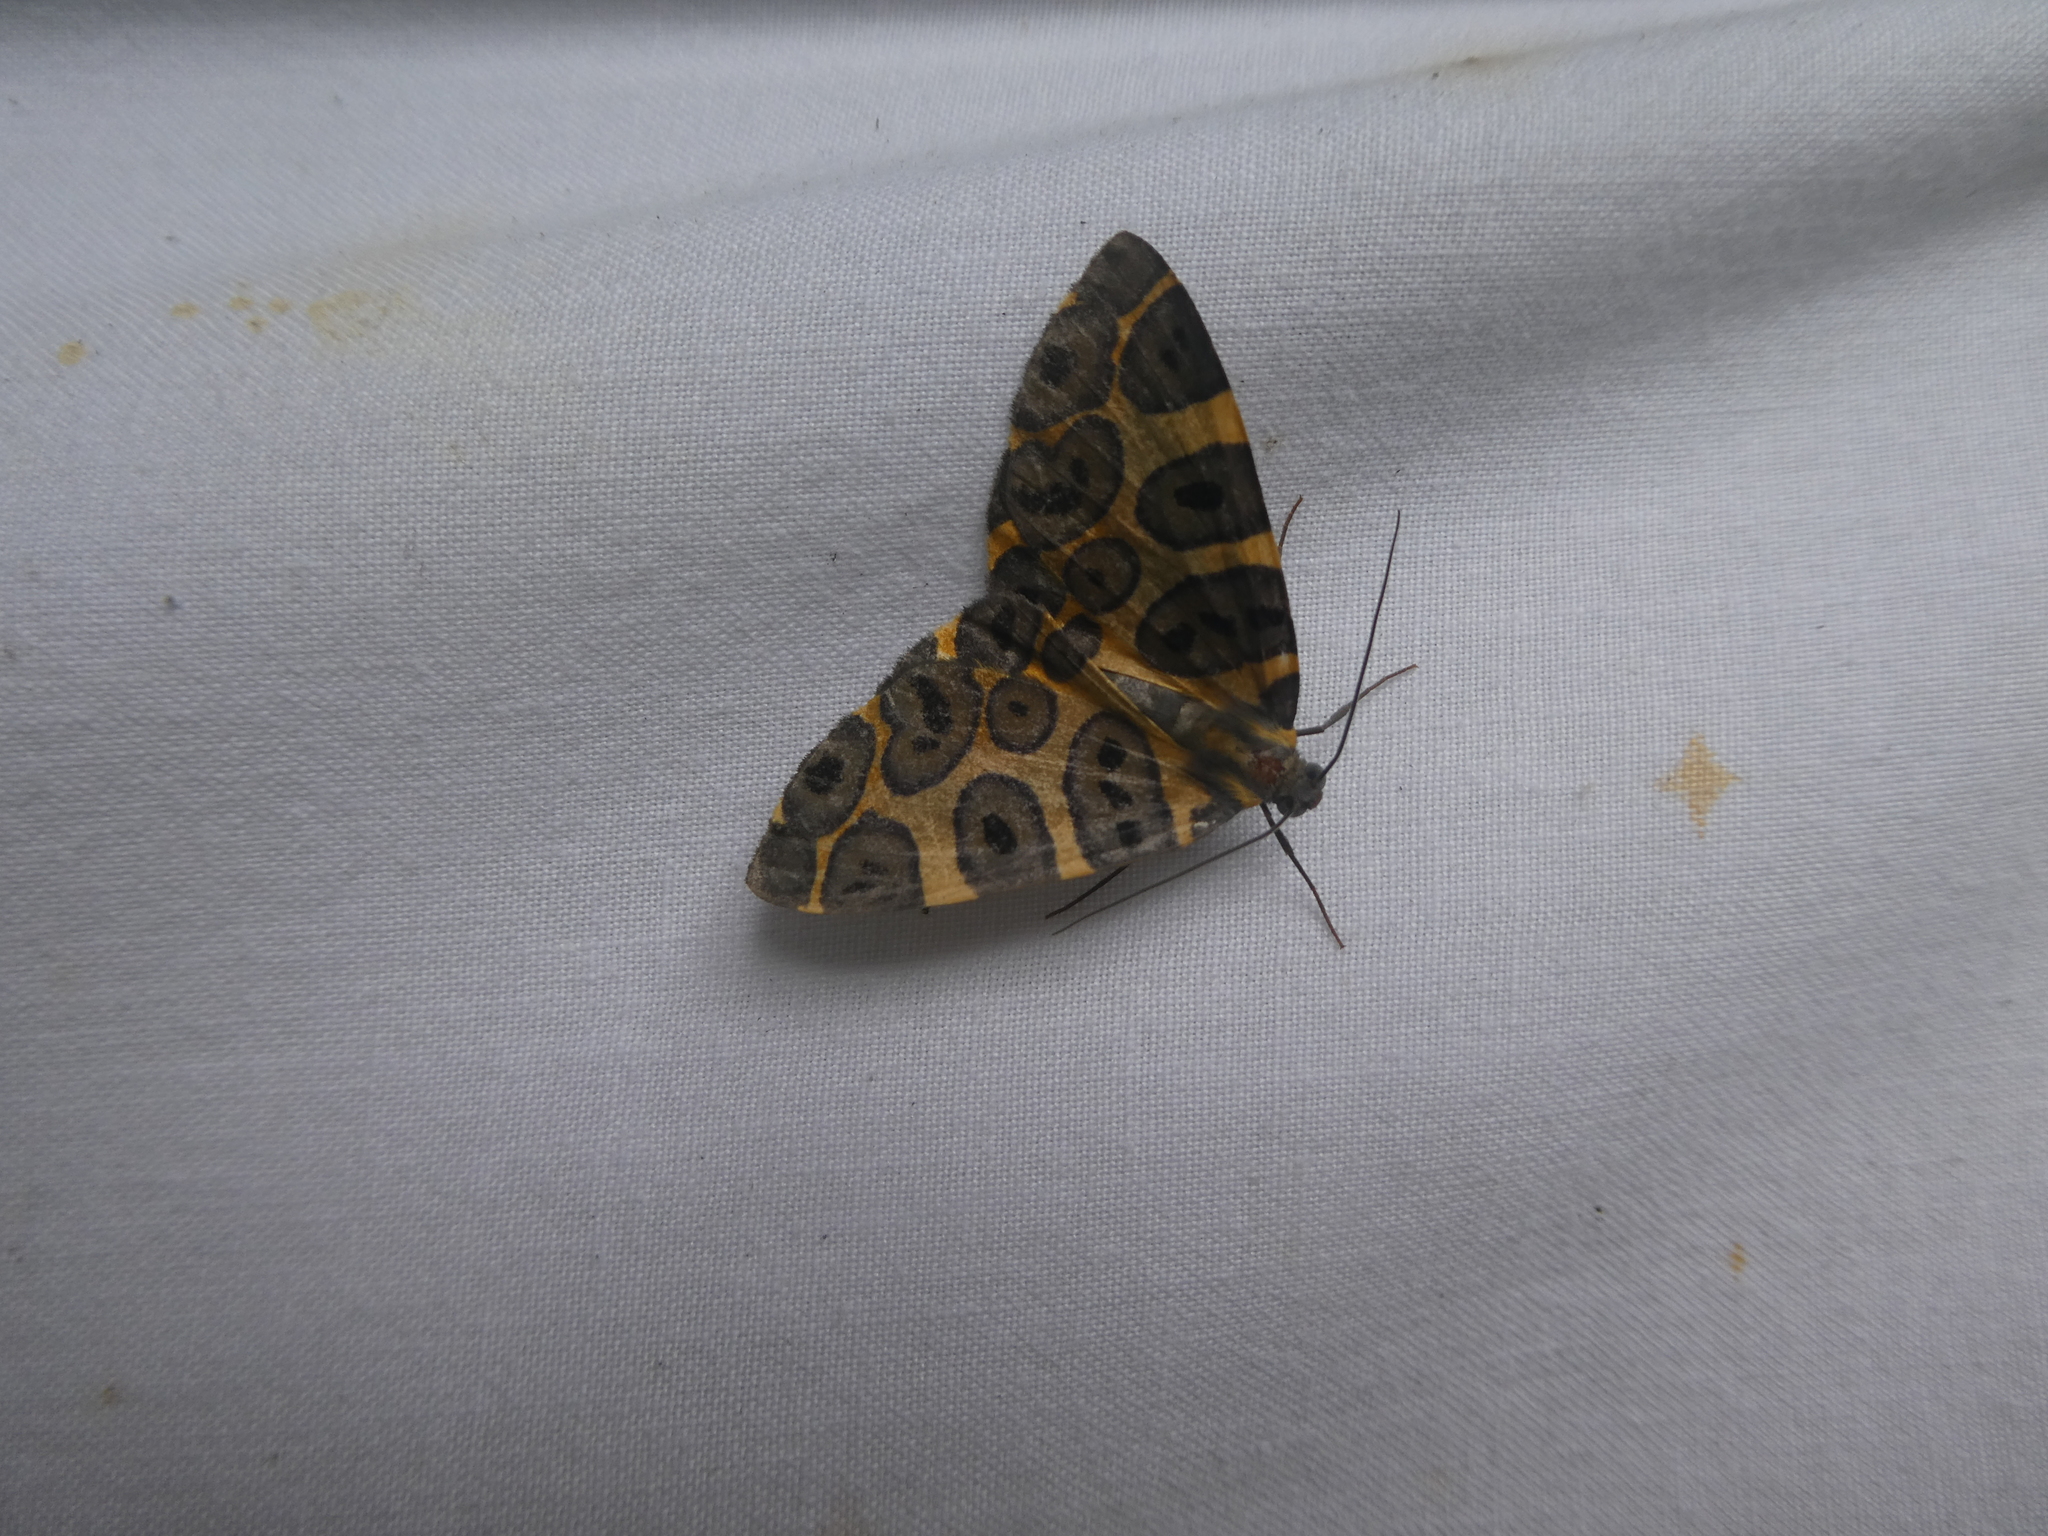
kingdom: Animalia
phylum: Arthropoda
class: Insecta
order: Lepidoptera
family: Geometridae
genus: Pantherodes
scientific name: Pantherodes colubraria
